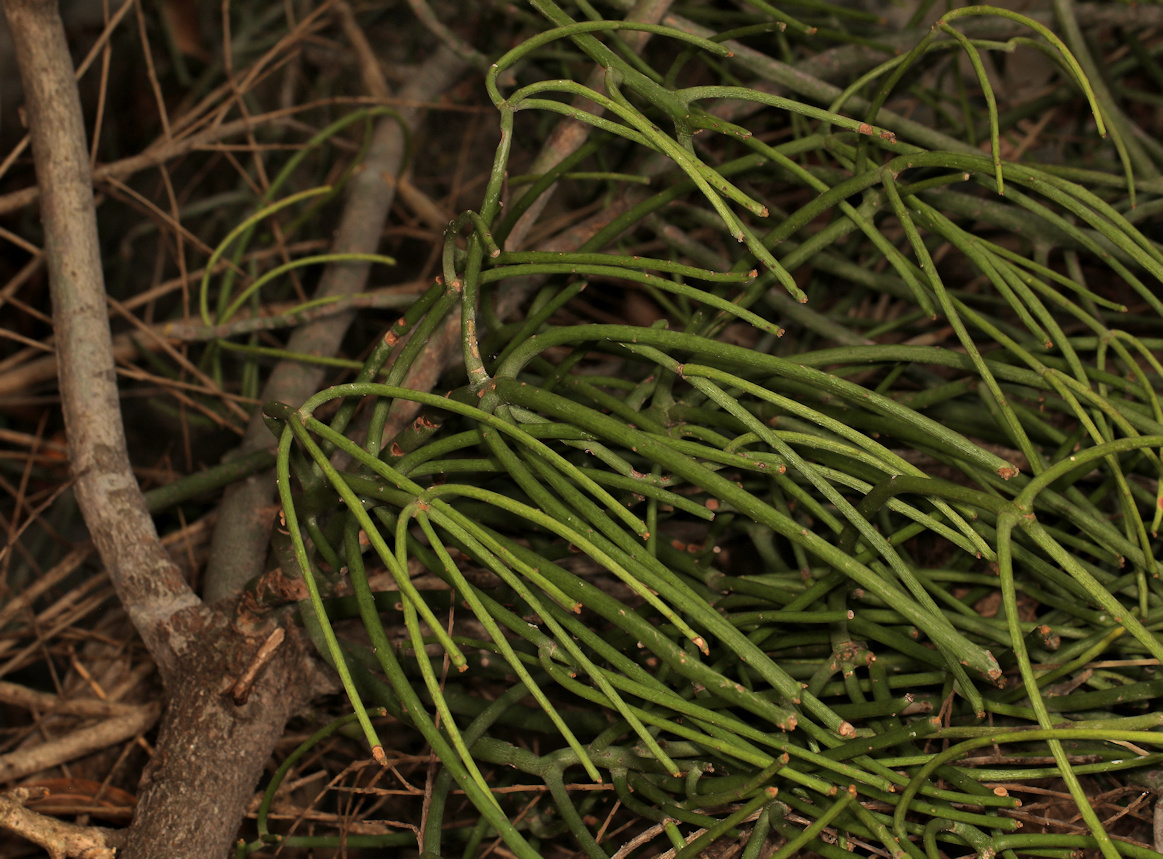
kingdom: Plantae
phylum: Tracheophyta
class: Magnoliopsida
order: Malpighiales
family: Euphorbiaceae
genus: Euphorbia
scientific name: Euphorbia tirucalli
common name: Indiantree spurge
